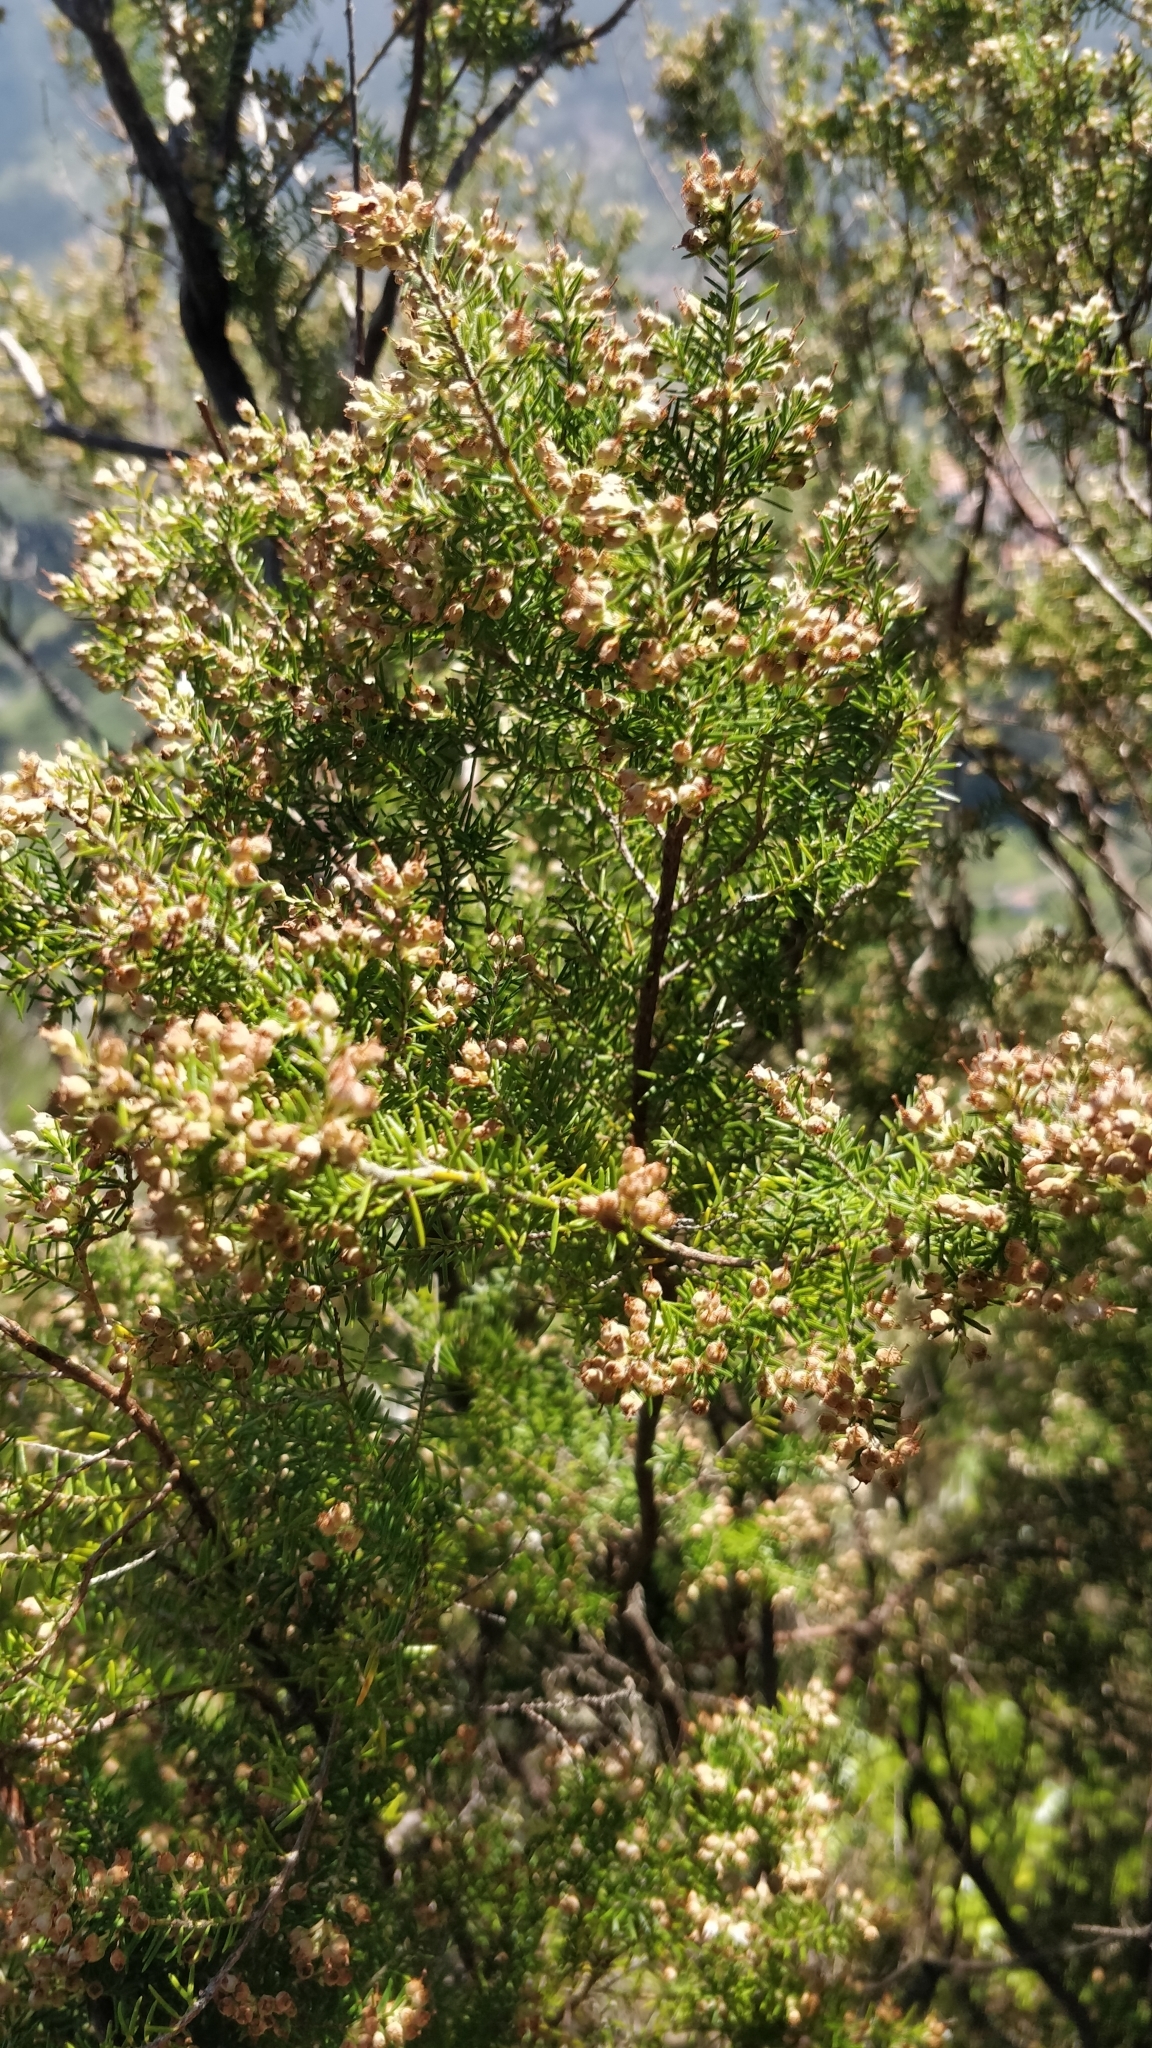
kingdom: Plantae
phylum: Tracheophyta
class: Magnoliopsida
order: Ericales
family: Ericaceae
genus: Erica
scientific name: Erica platycodon
